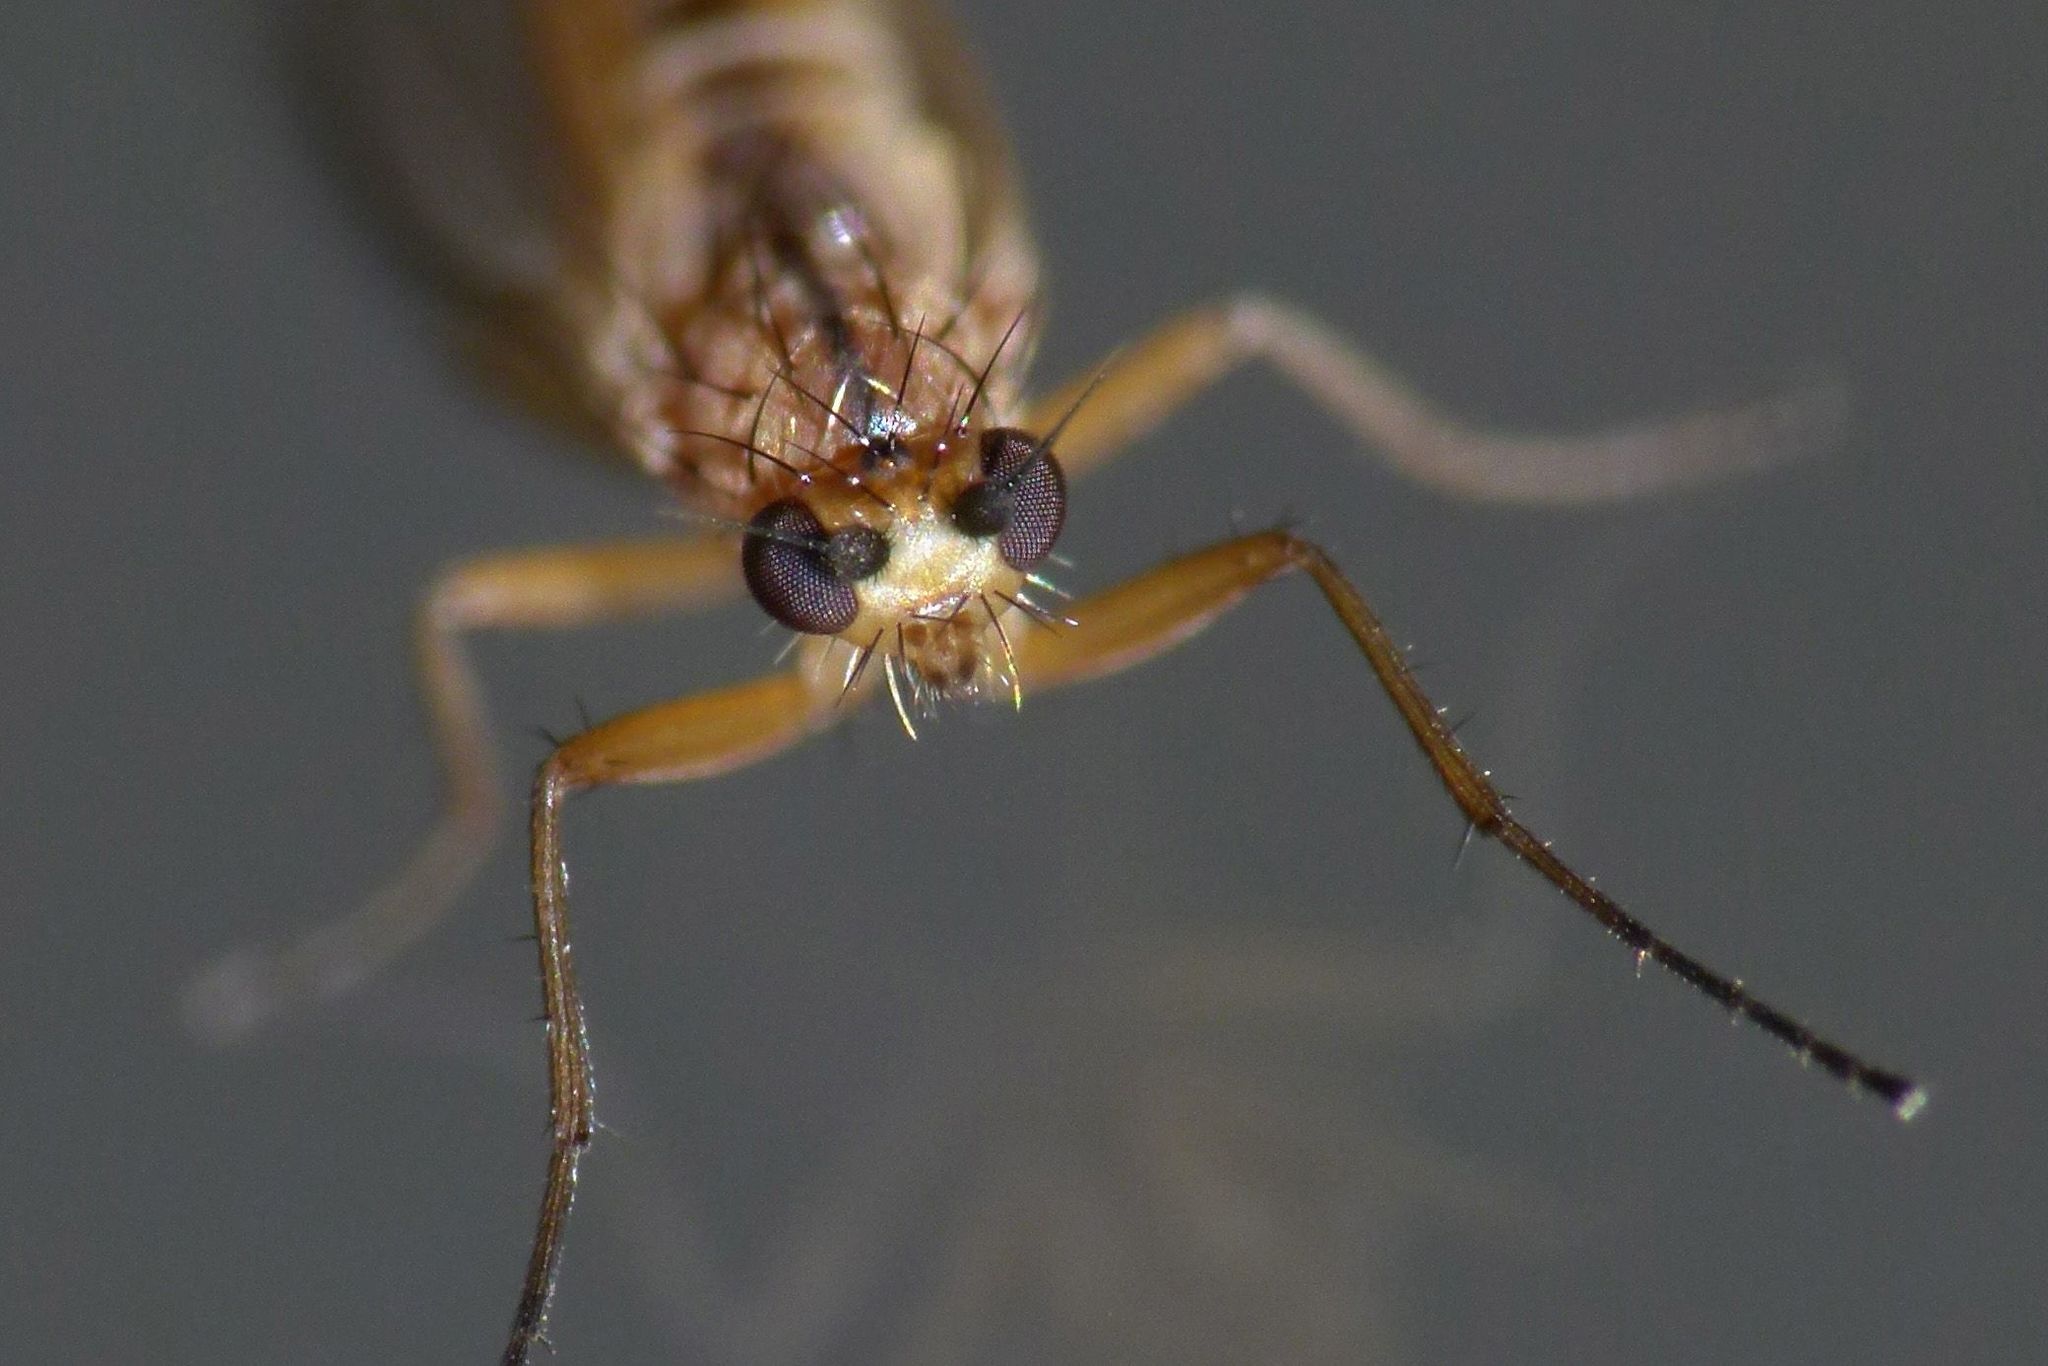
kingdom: Animalia
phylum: Arthropoda
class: Insecta
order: Diptera
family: Lonchopteridae
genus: Lonchoptera
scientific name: Lonchoptera bifurcata
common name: Spear-winged fly
